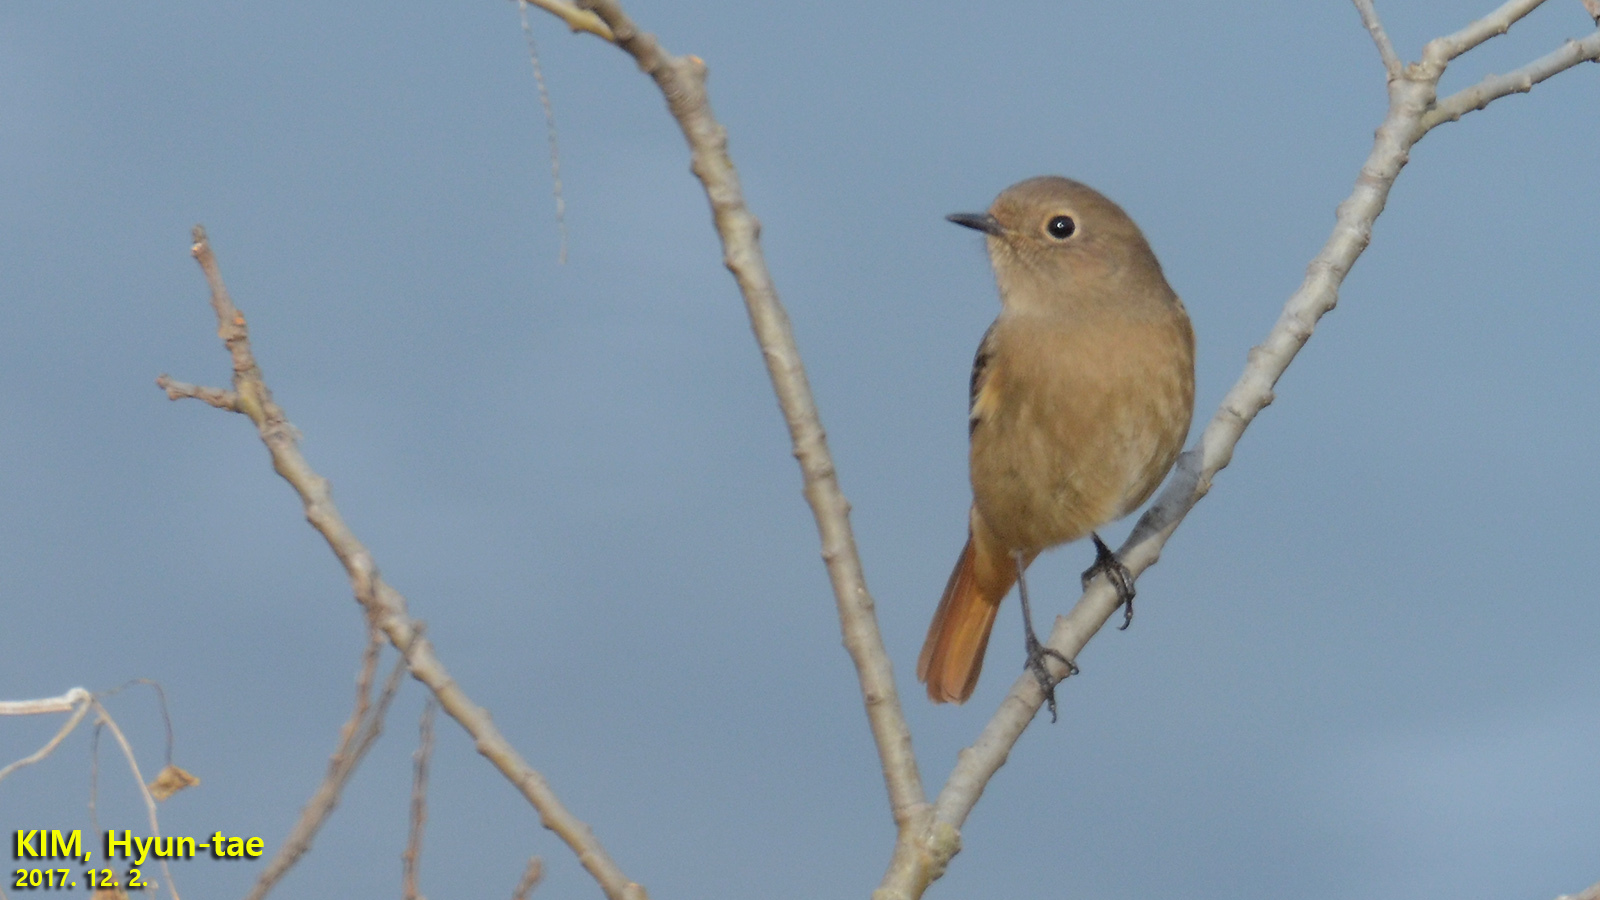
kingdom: Animalia
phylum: Chordata
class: Aves
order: Passeriformes
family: Muscicapidae
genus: Phoenicurus
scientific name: Phoenicurus auroreus
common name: Daurian redstart
